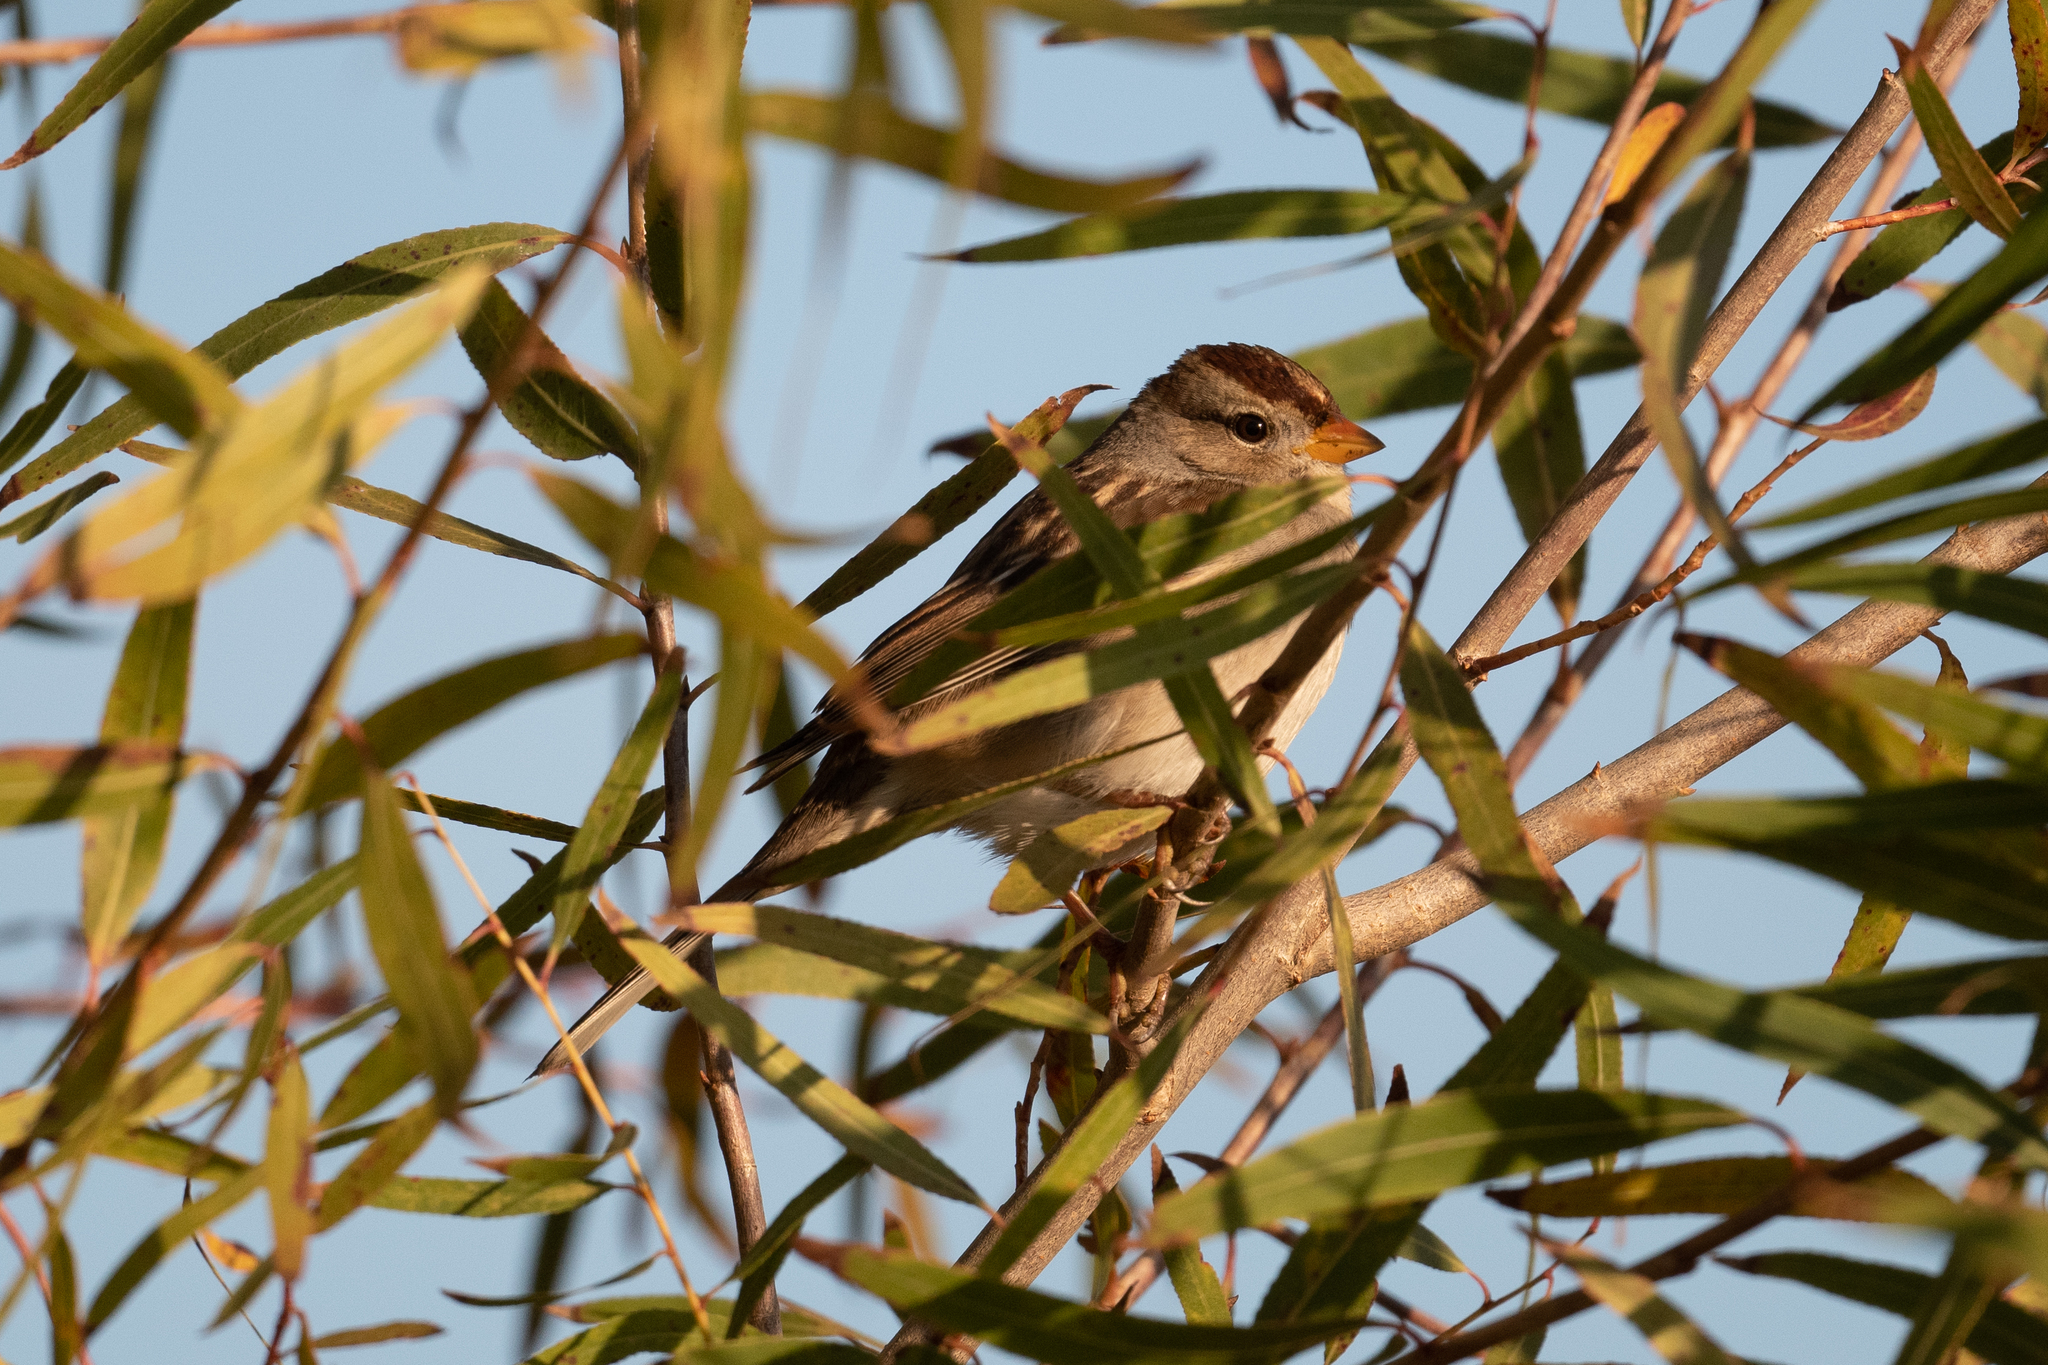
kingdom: Animalia
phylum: Chordata
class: Aves
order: Passeriformes
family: Passerellidae
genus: Zonotrichia
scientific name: Zonotrichia leucophrys
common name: White-crowned sparrow
